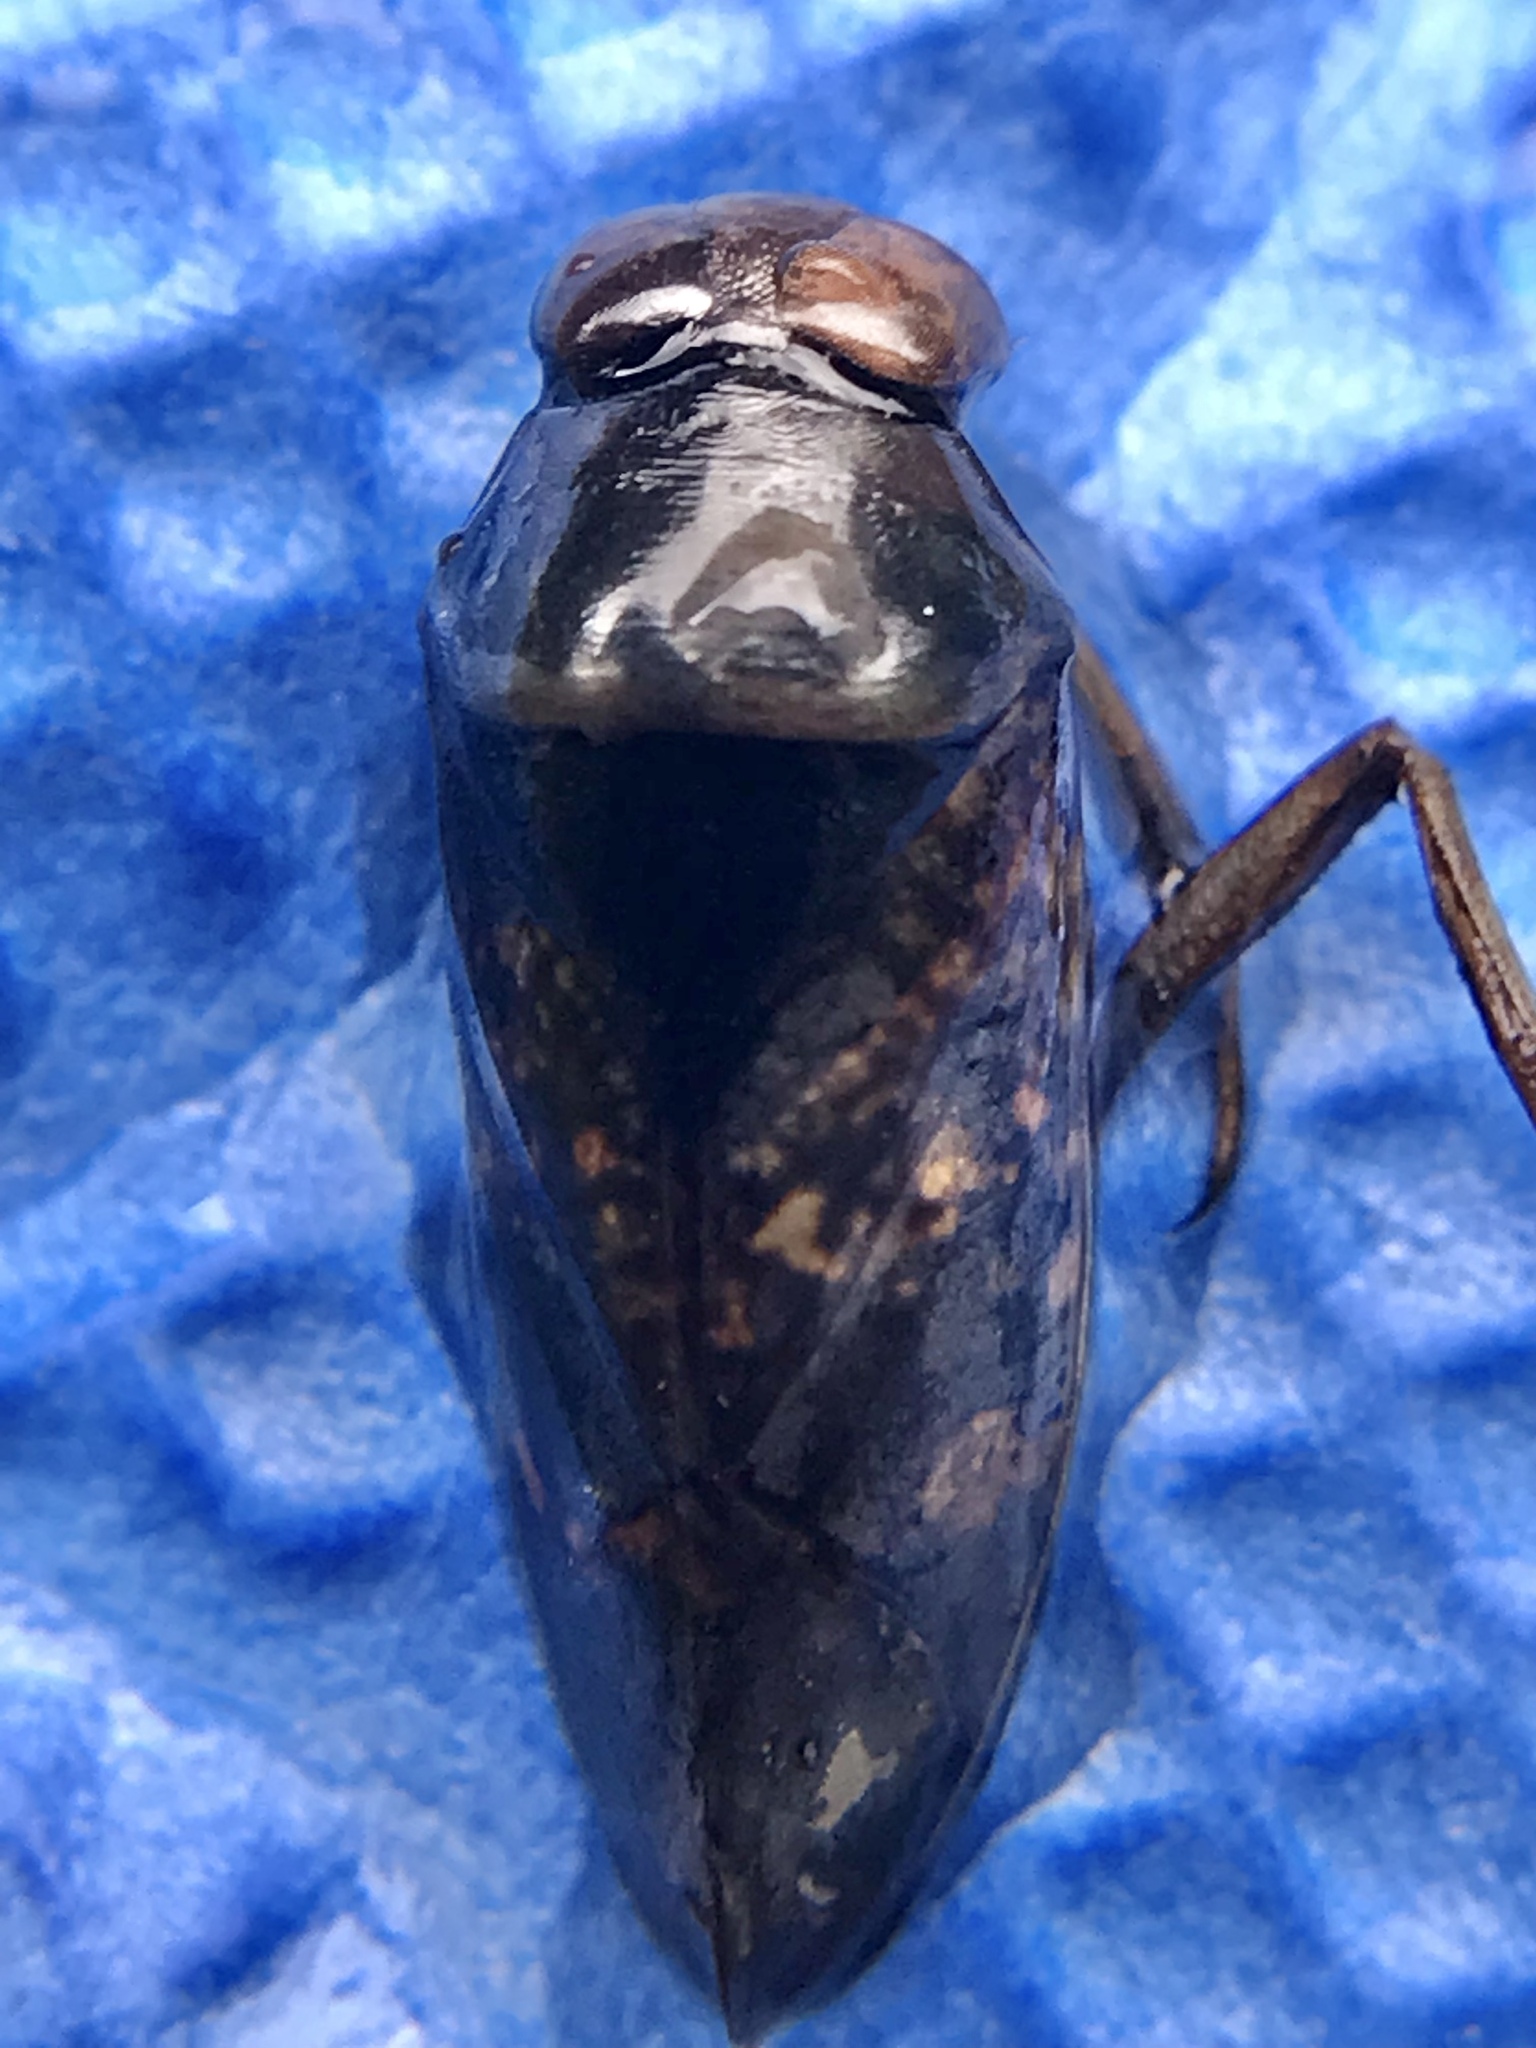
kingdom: Animalia
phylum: Arthropoda
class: Insecta
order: Hemiptera
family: Notonectidae
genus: Notonecta
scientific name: Notonecta irrorata
